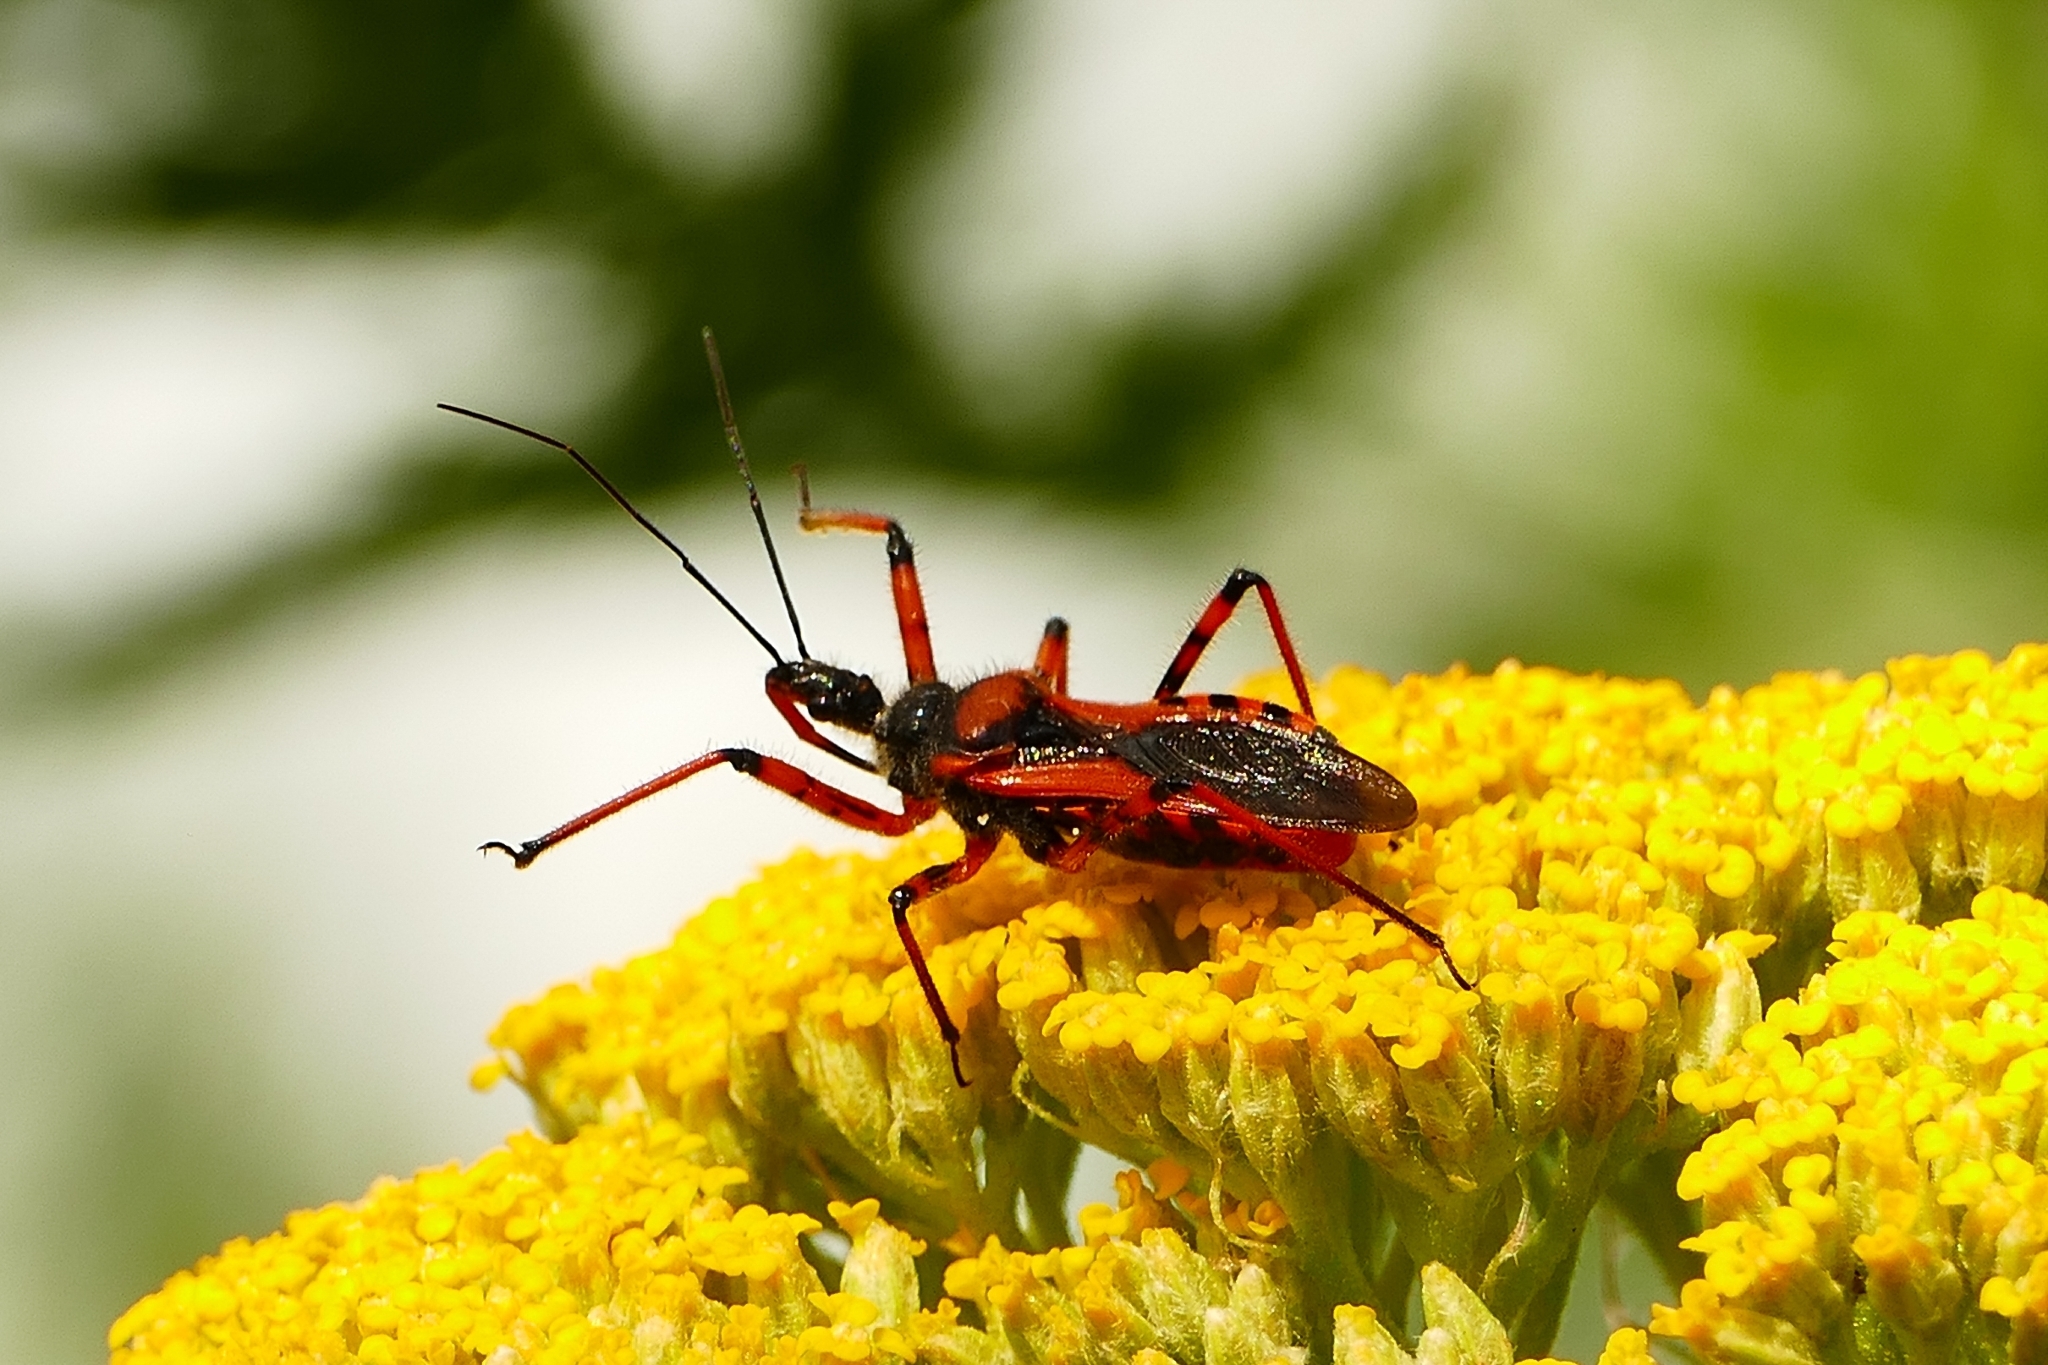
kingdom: Animalia
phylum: Arthropoda
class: Insecta
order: Hemiptera
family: Reduviidae
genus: Rhynocoris
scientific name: Rhynocoris iracundus
